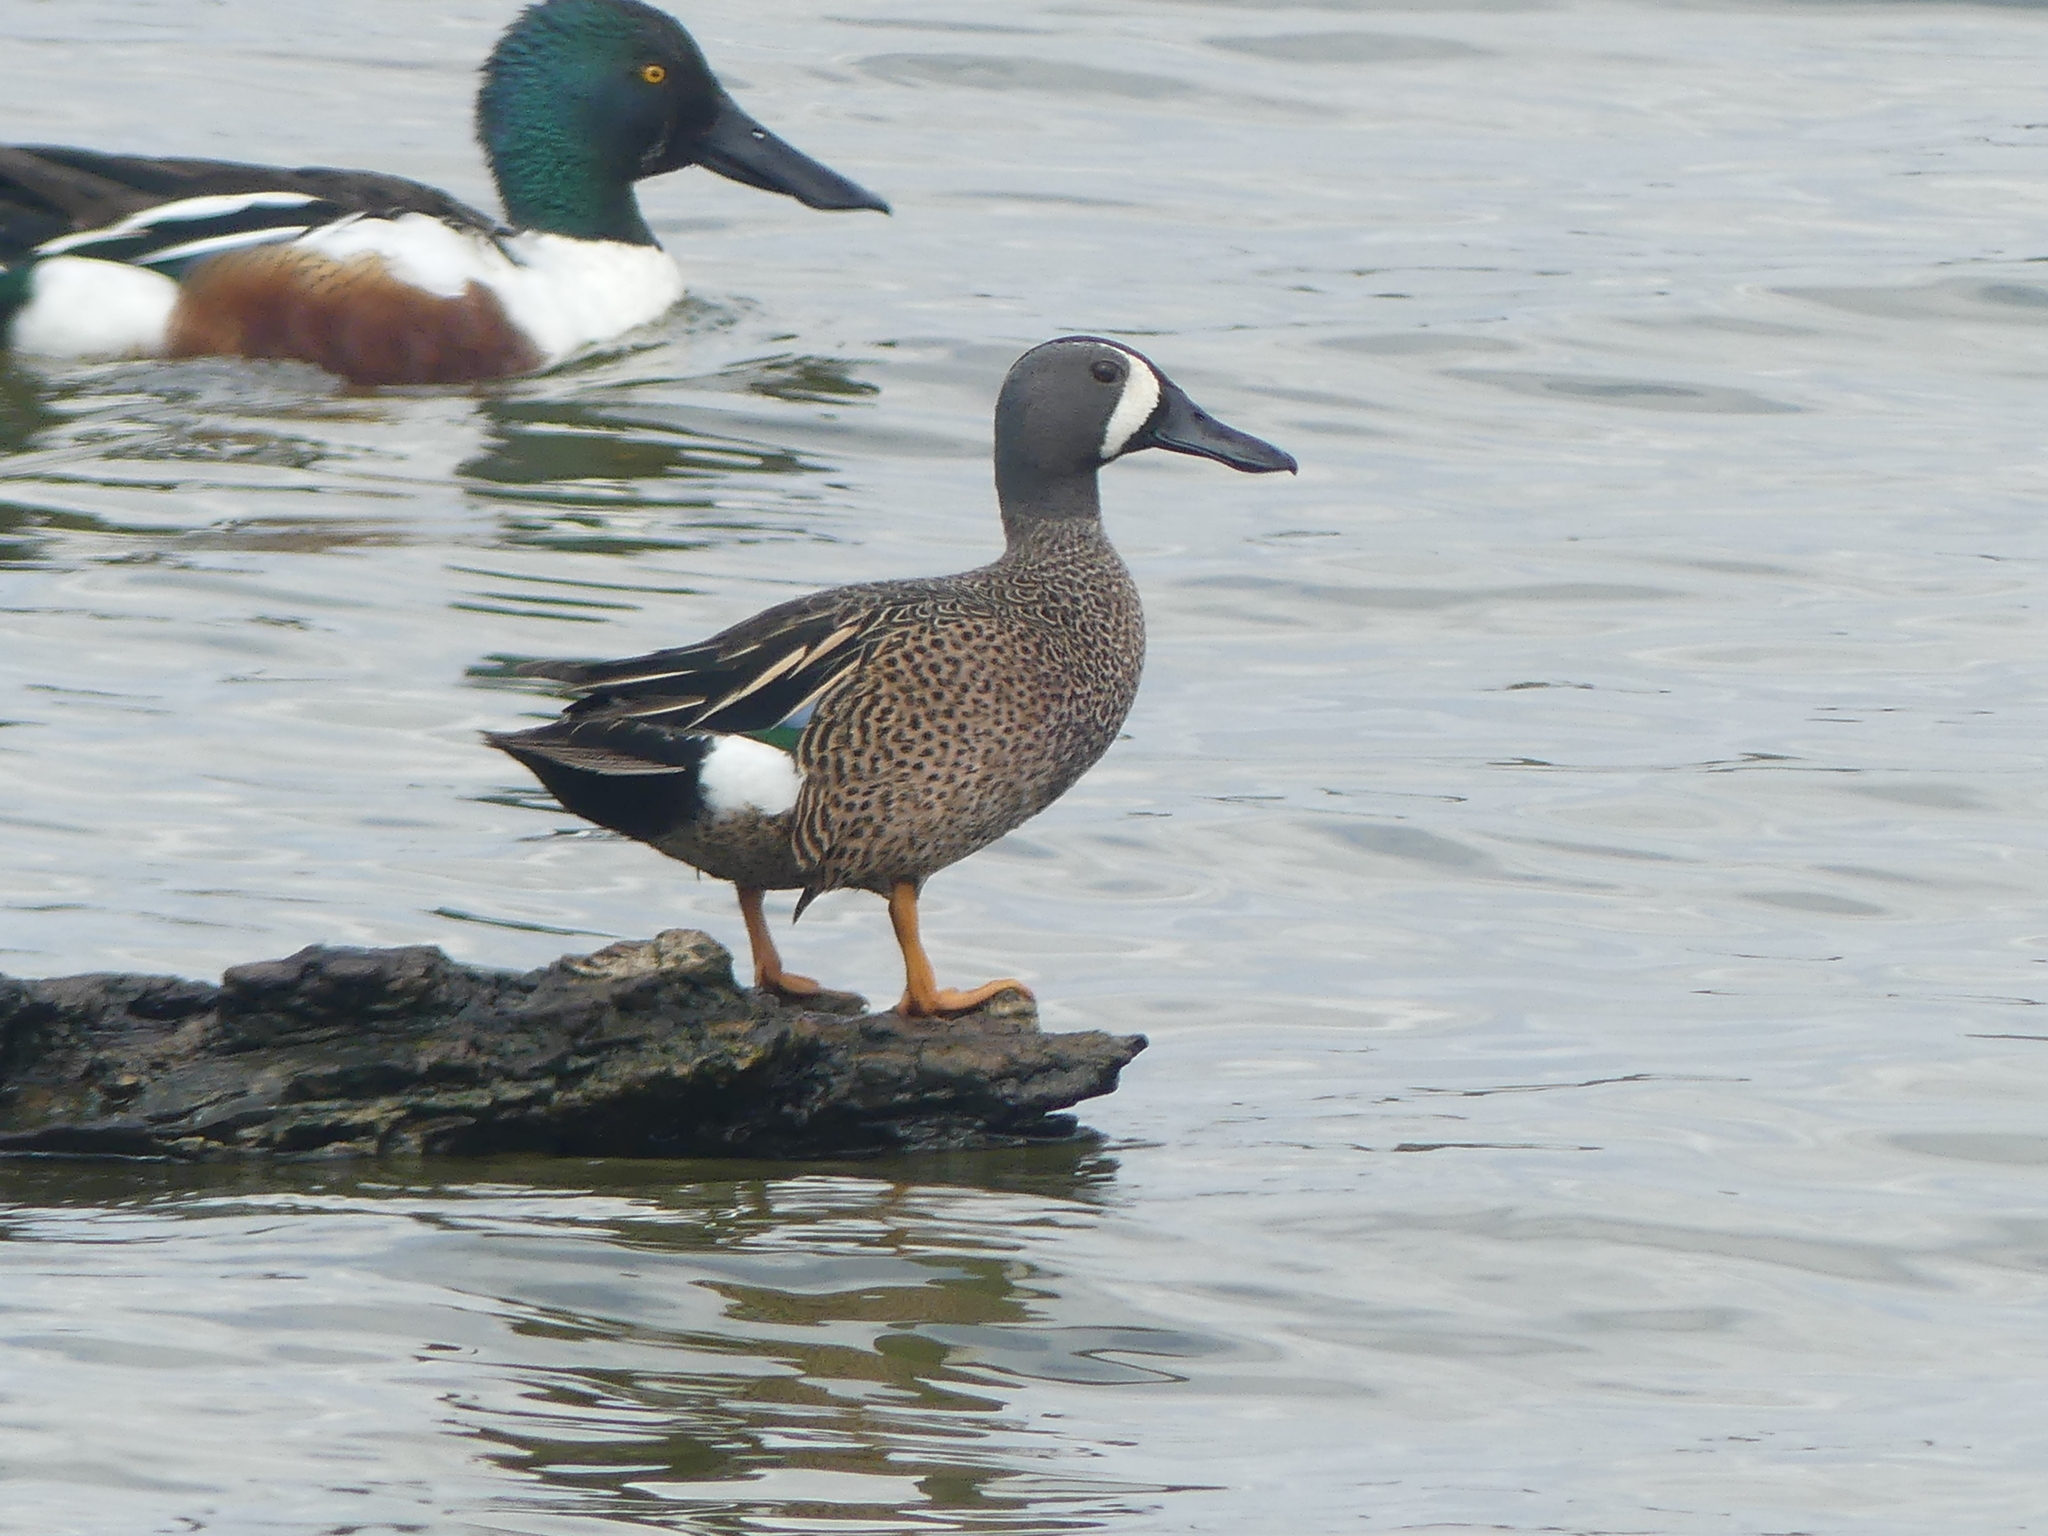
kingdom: Animalia
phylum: Chordata
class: Aves
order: Anseriformes
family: Anatidae
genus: Spatula
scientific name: Spatula discors
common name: Blue-winged teal
